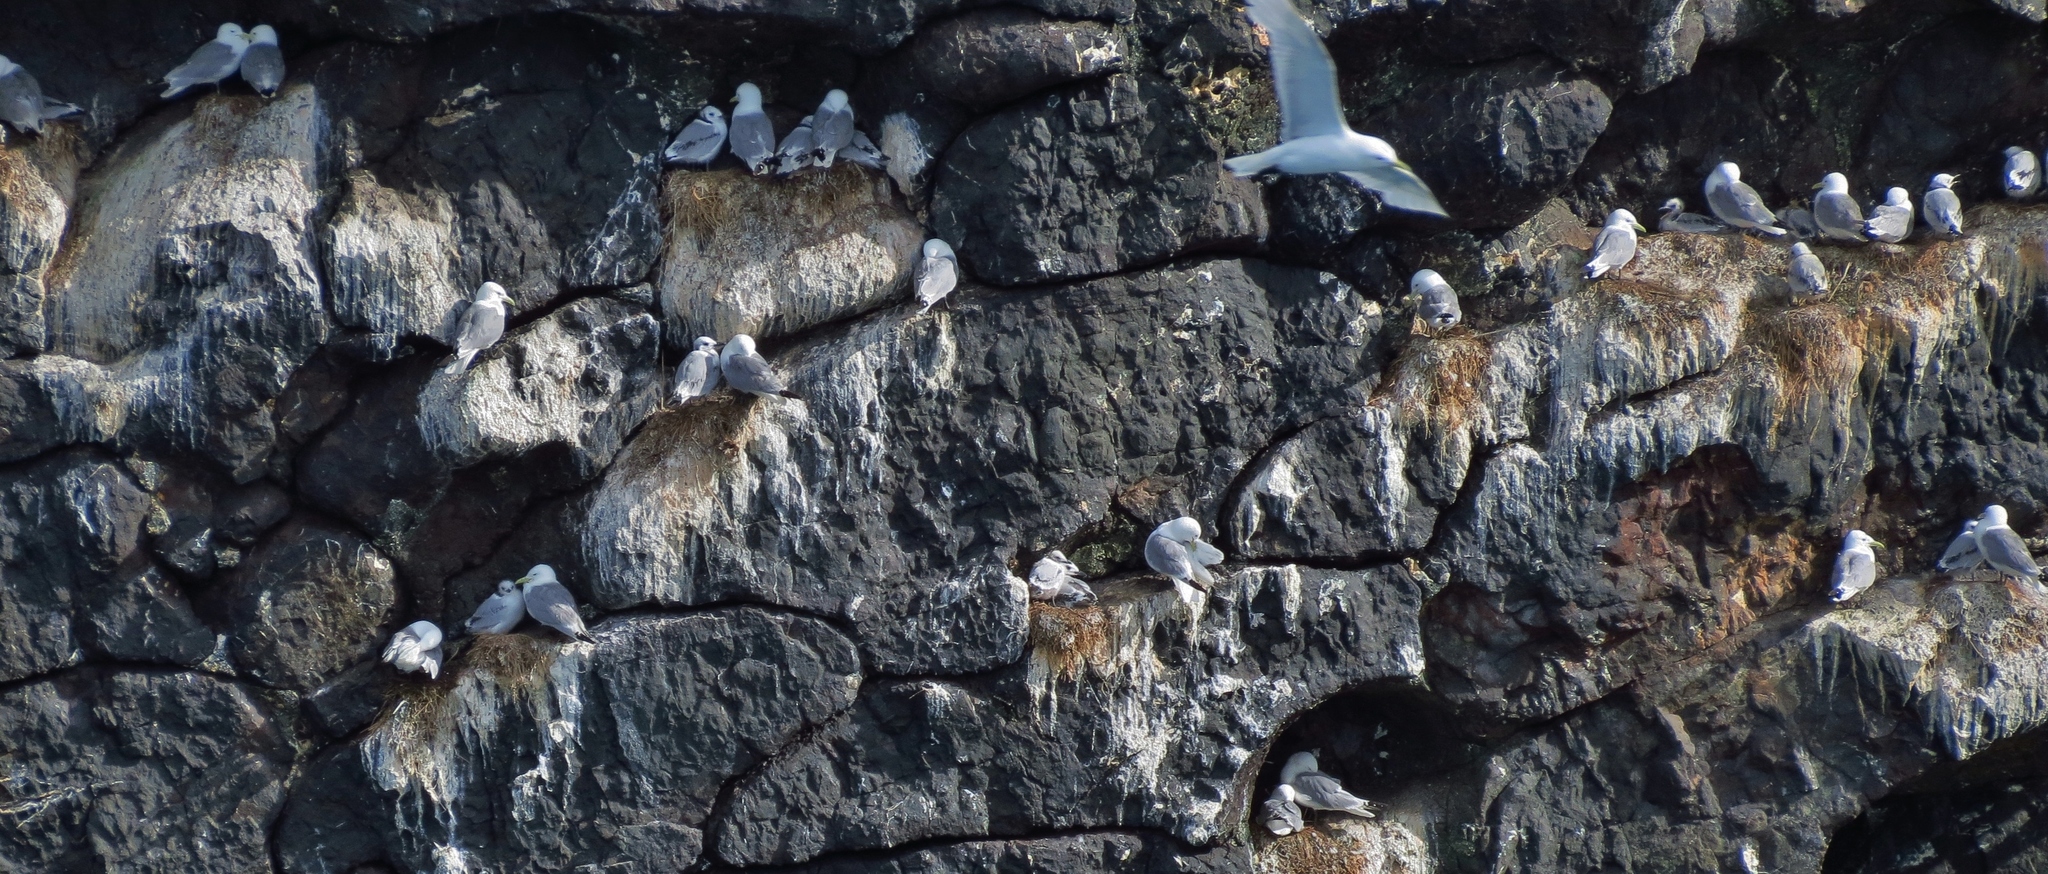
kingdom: Animalia
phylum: Chordata
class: Aves
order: Charadriiformes
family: Laridae
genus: Rissa
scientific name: Rissa tridactyla
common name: Black-legged kittiwake
